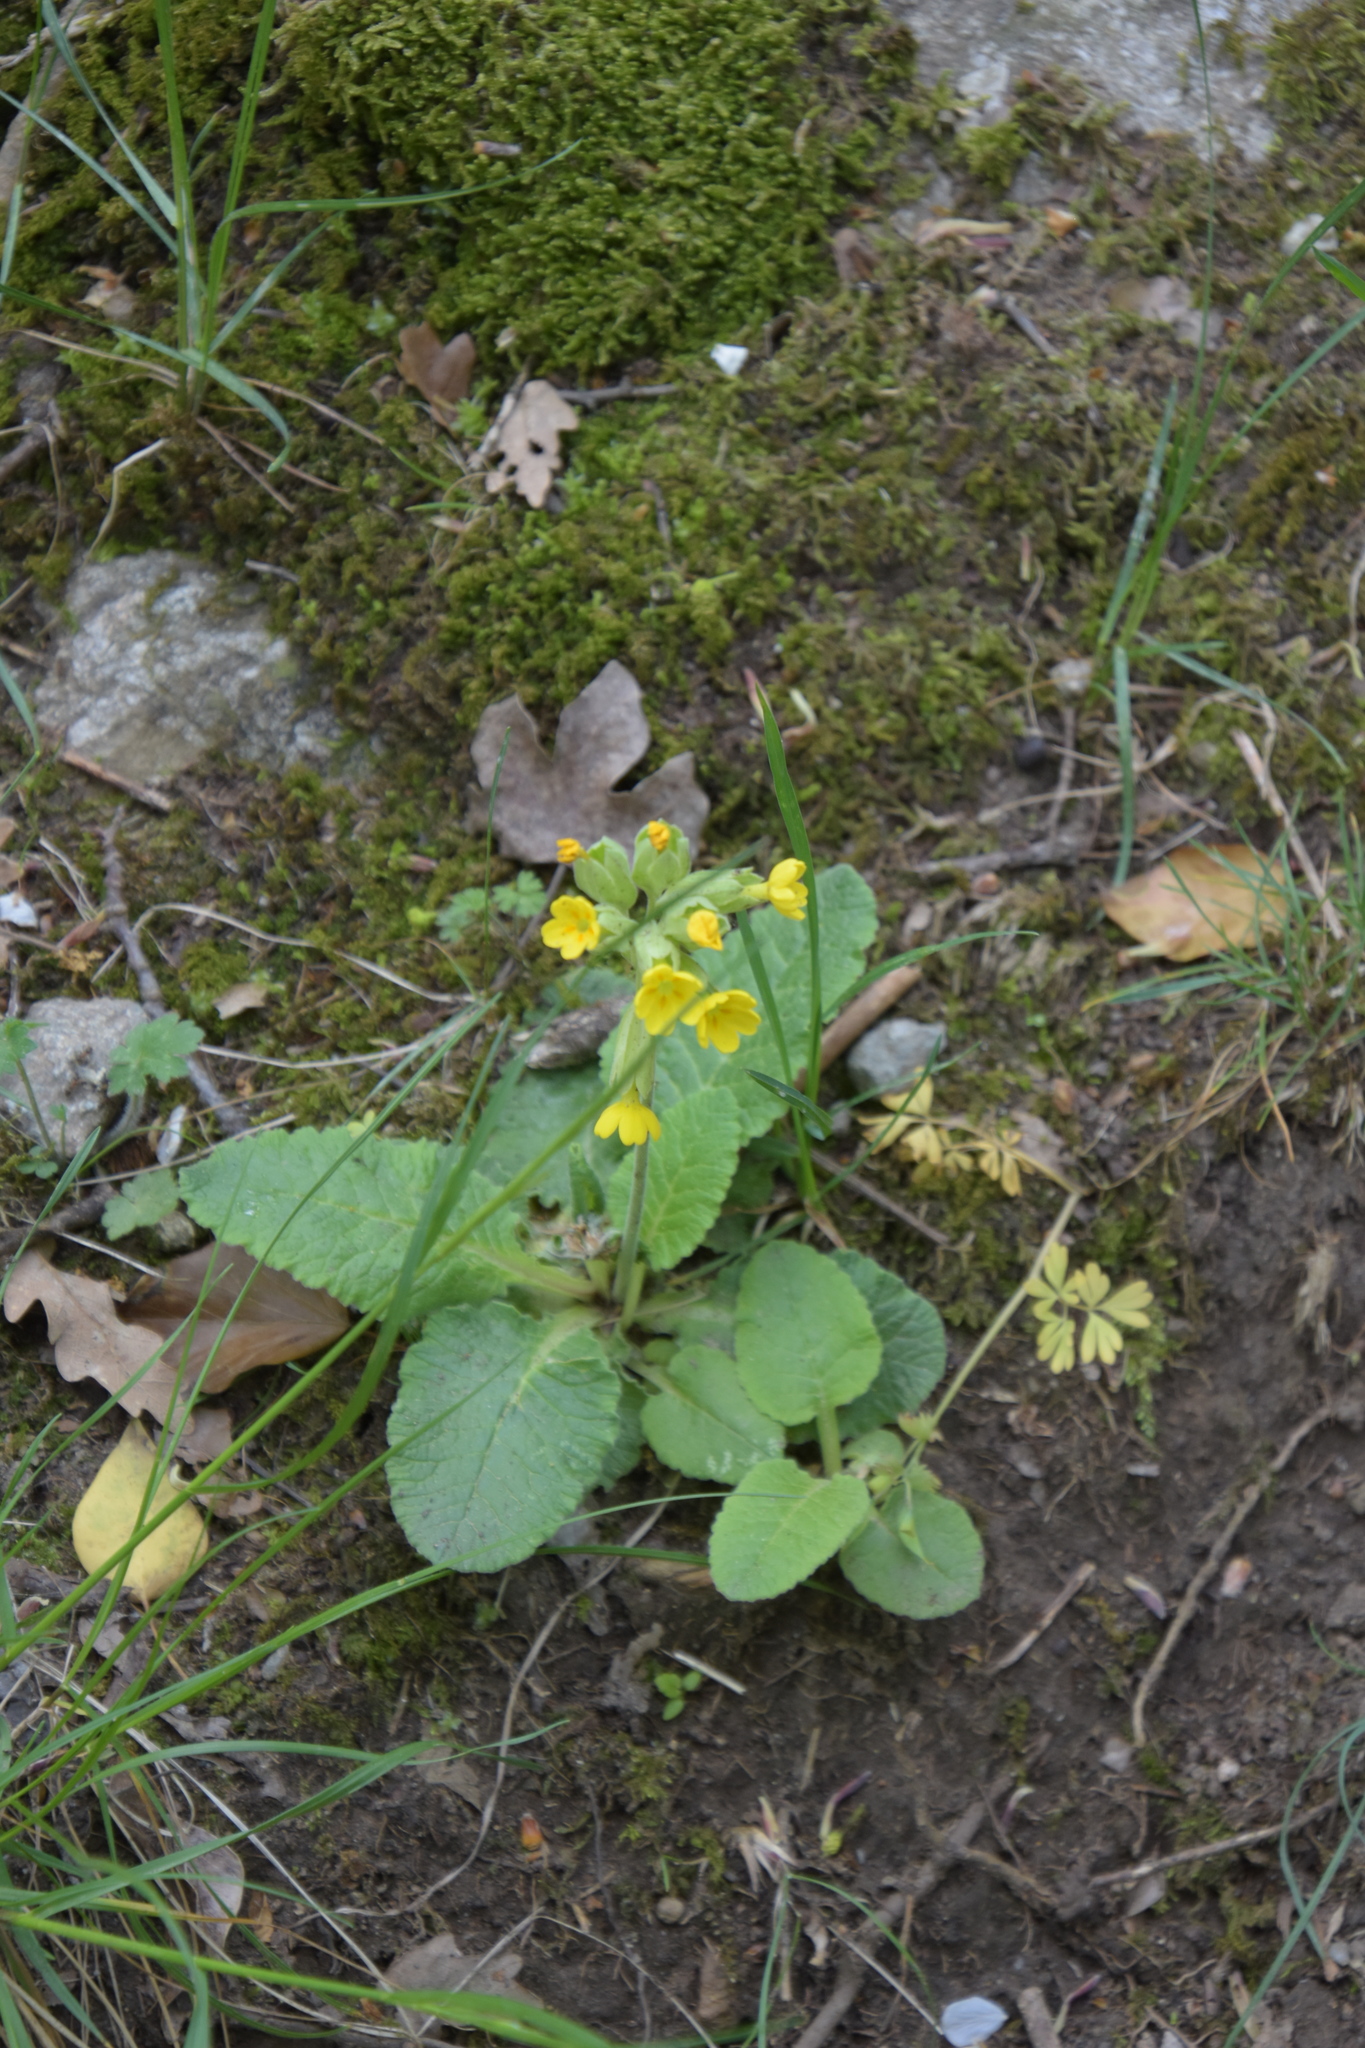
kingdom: Plantae
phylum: Tracheophyta
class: Magnoliopsida
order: Ericales
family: Primulaceae
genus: Primula
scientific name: Primula veris
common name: Cowslip
